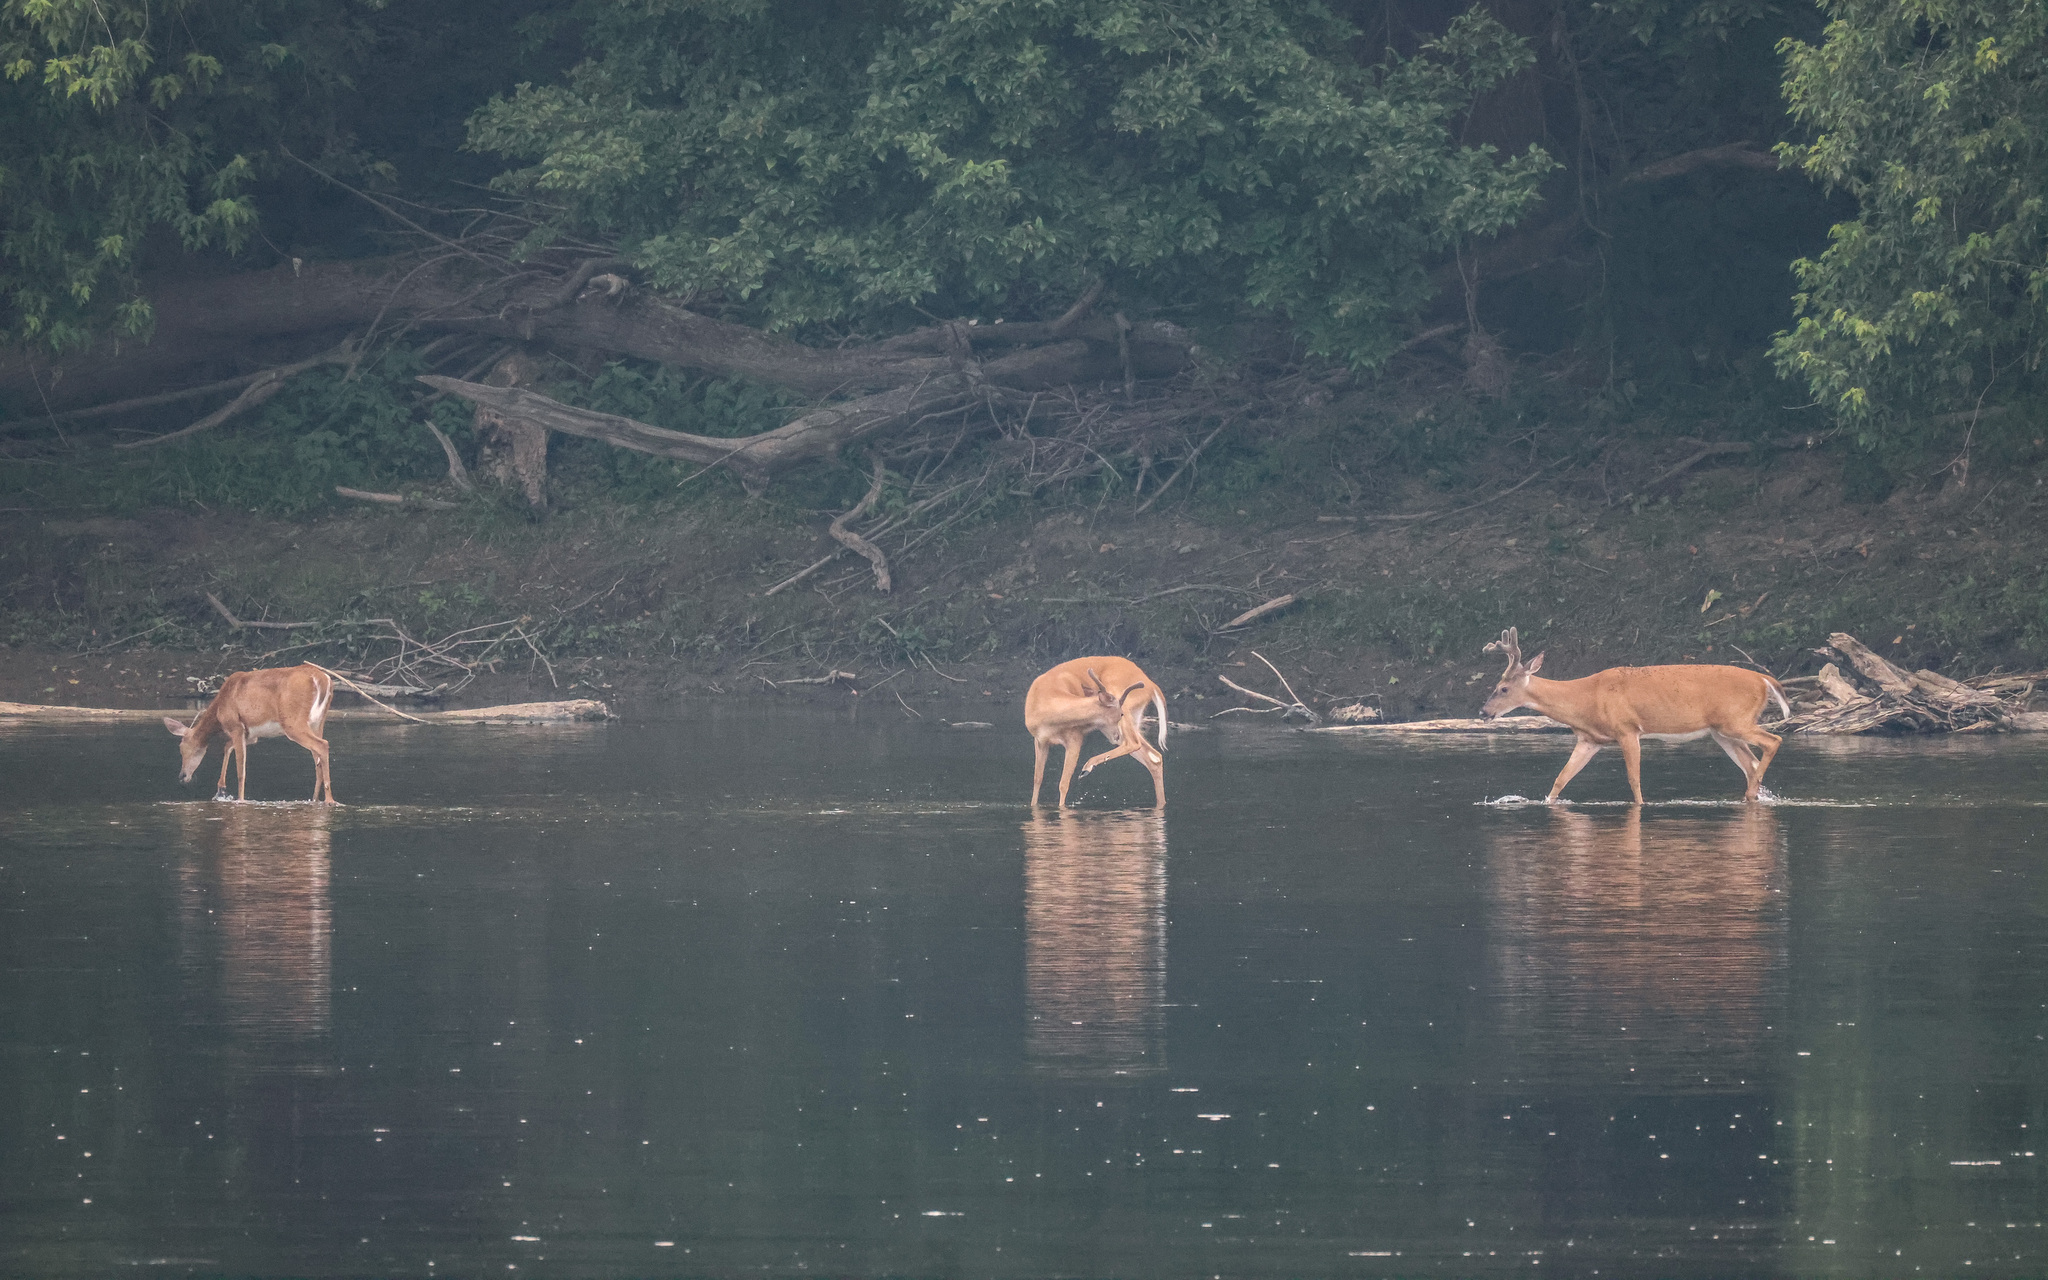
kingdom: Animalia
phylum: Chordata
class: Mammalia
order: Artiodactyla
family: Cervidae
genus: Odocoileus
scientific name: Odocoileus virginianus
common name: White-tailed deer
